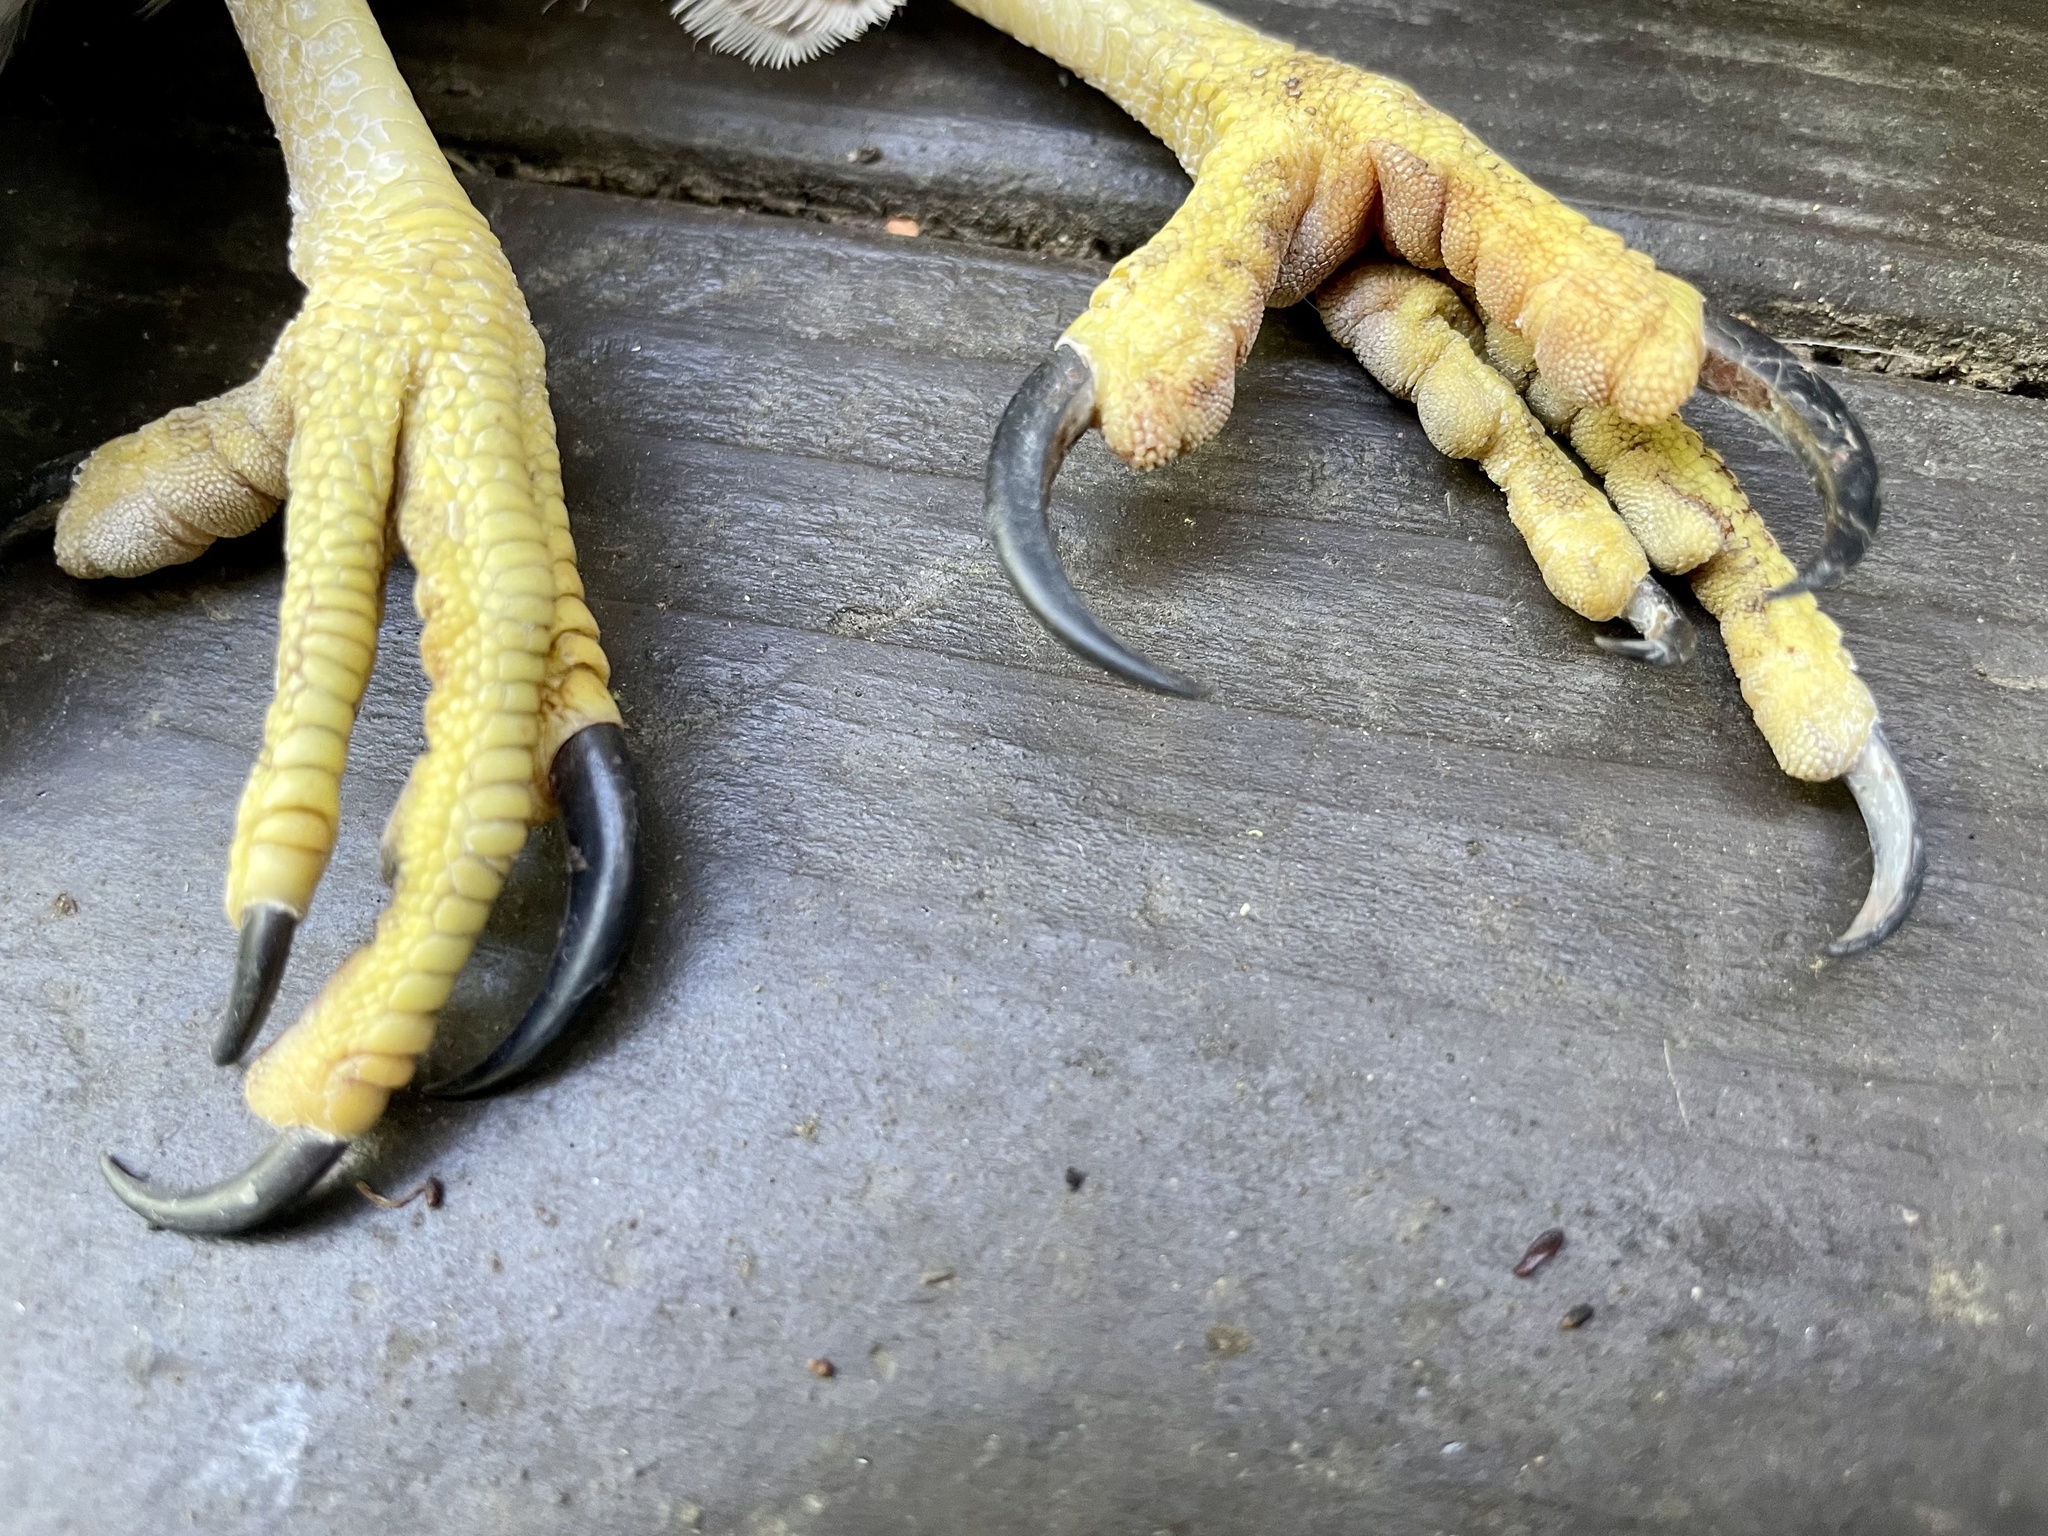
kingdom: Animalia
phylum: Chordata
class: Aves
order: Accipitriformes
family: Accipitridae
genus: Accipiter
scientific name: Accipiter cooperii
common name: Cooper's hawk
